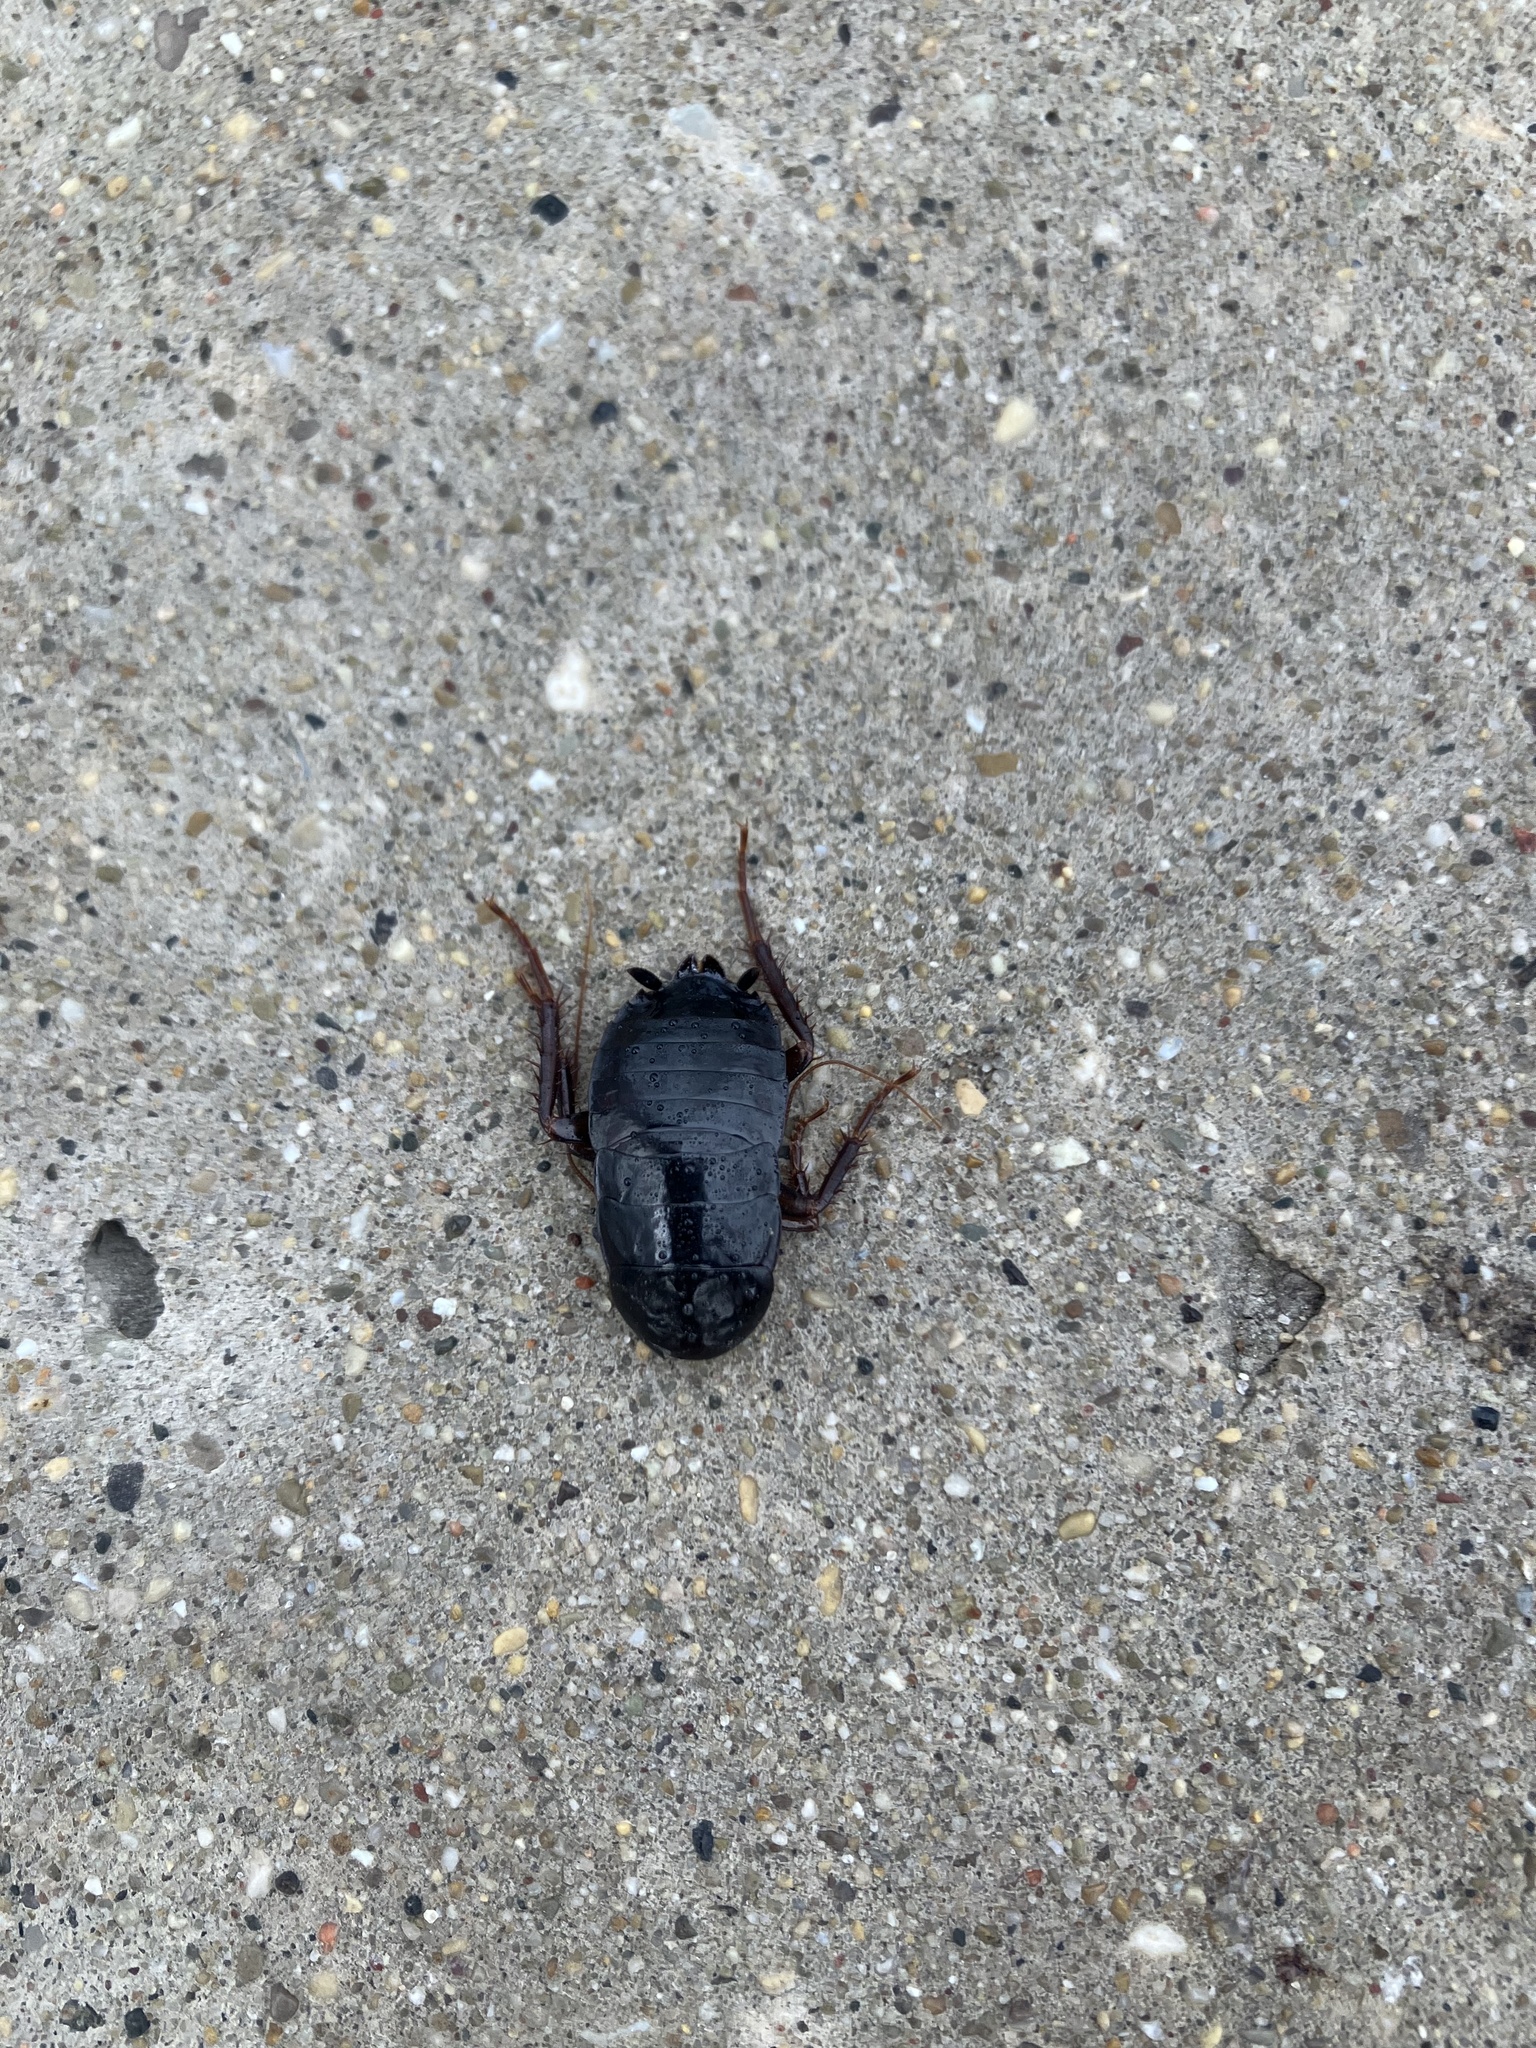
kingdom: Animalia
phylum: Arthropoda
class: Insecta
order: Blattodea
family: Blattidae
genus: Blatta
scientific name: Blatta orientalis
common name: Oriental cockroach
